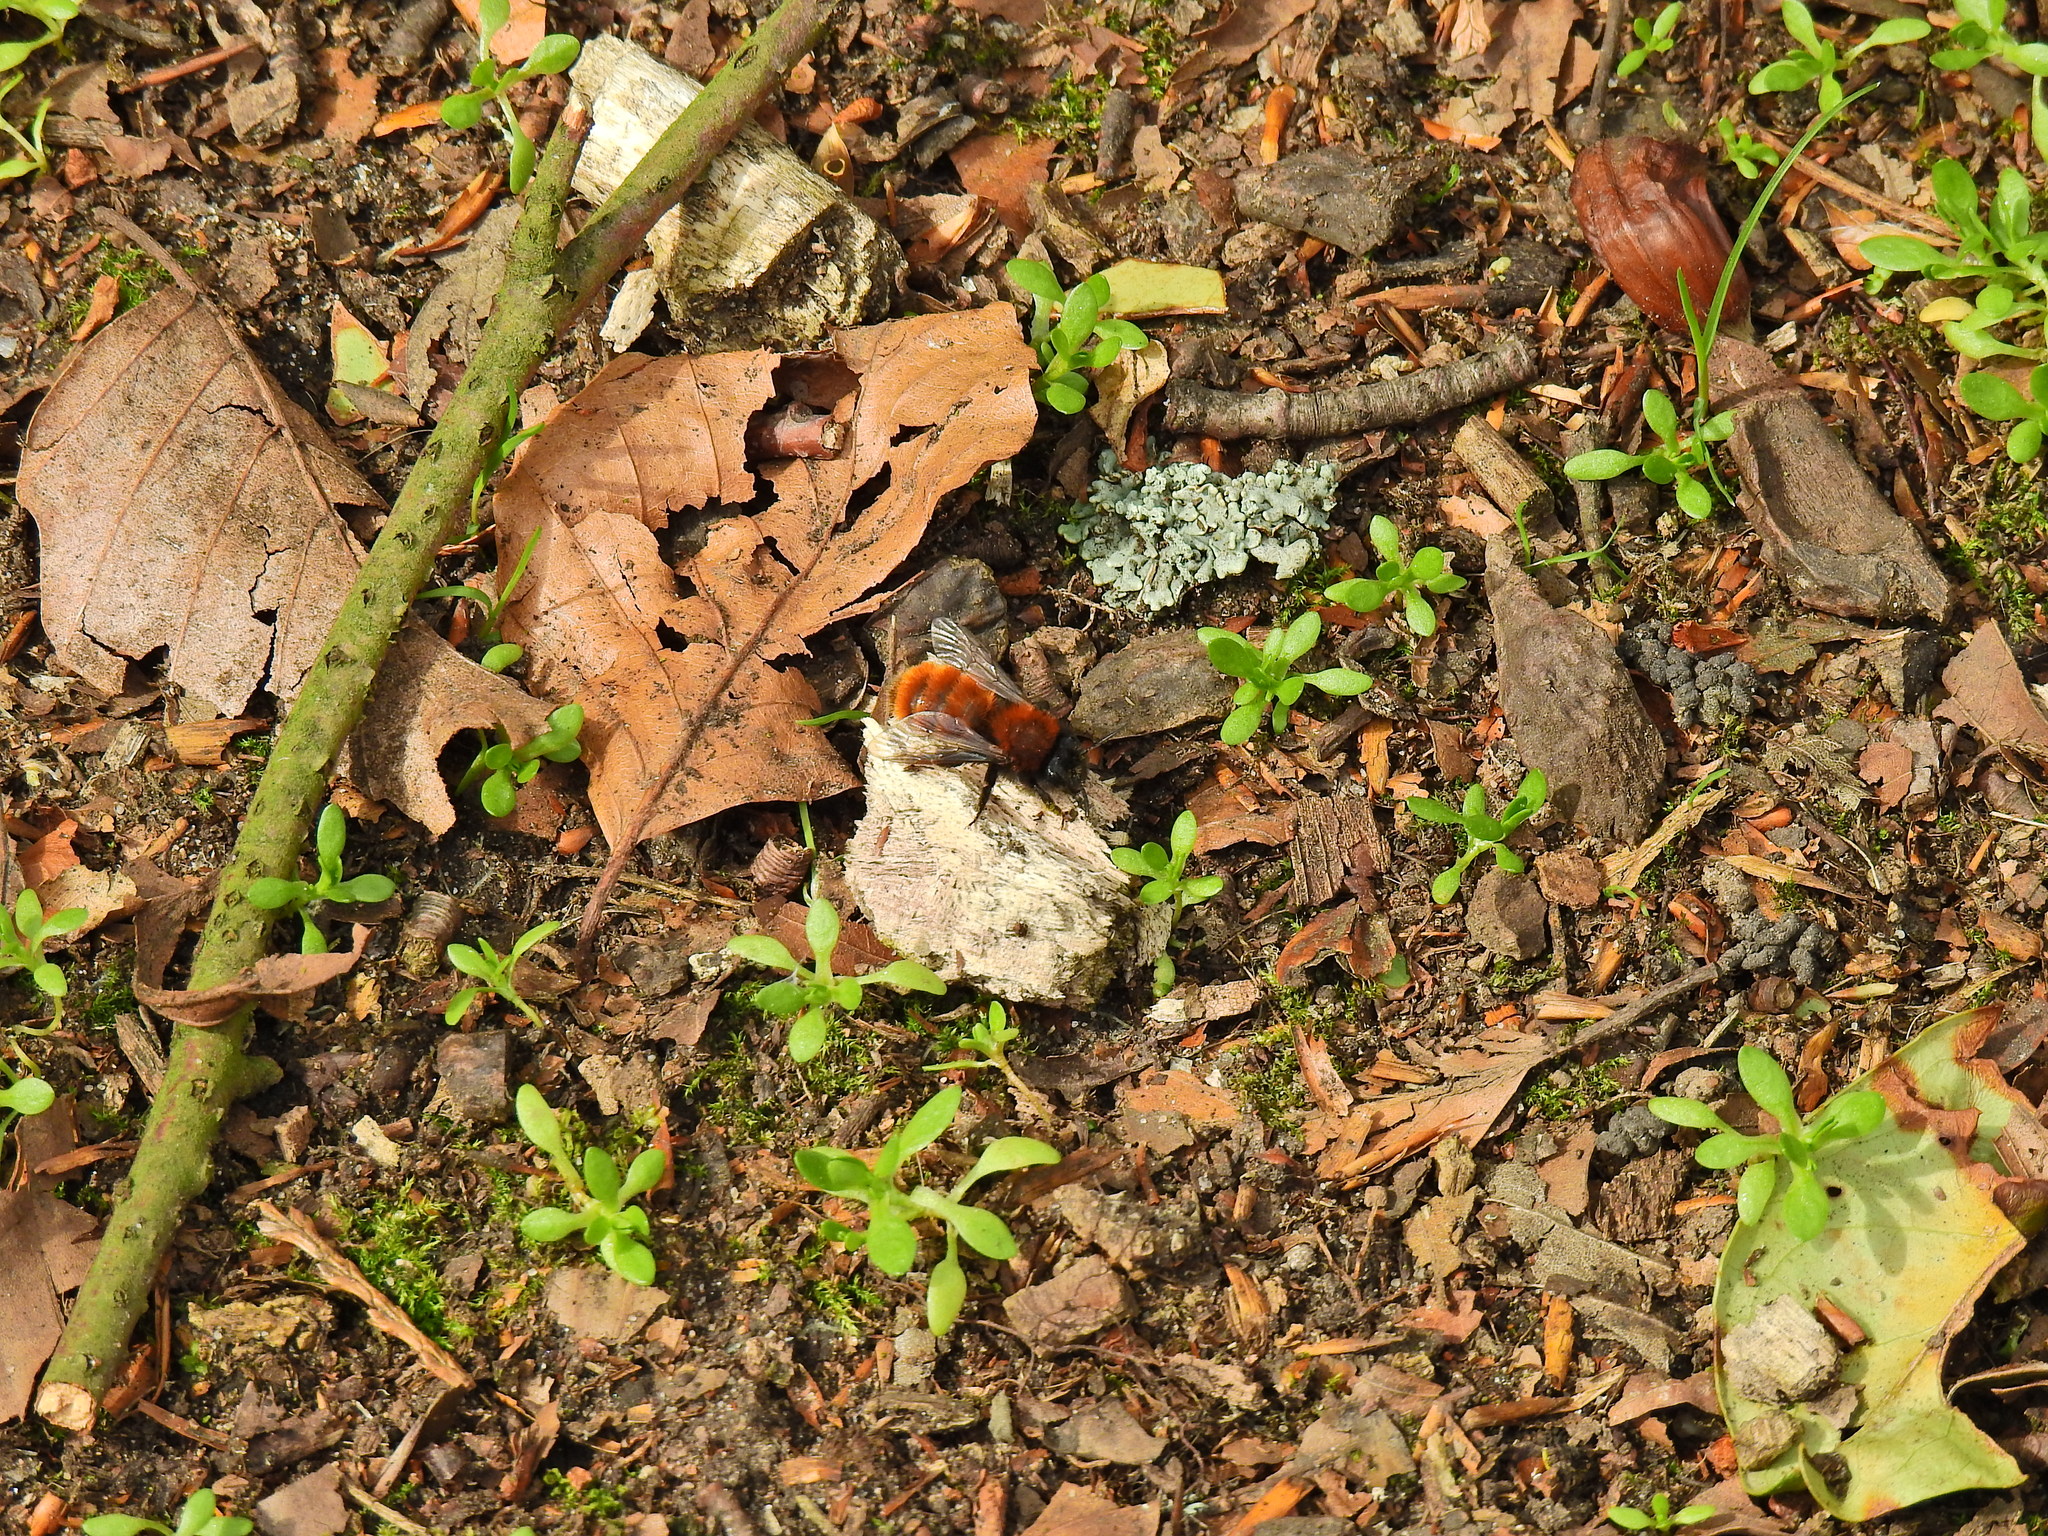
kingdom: Animalia
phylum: Arthropoda
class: Insecta
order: Hymenoptera
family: Andrenidae
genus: Andrena
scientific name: Andrena fulva
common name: Tawny mining bee
